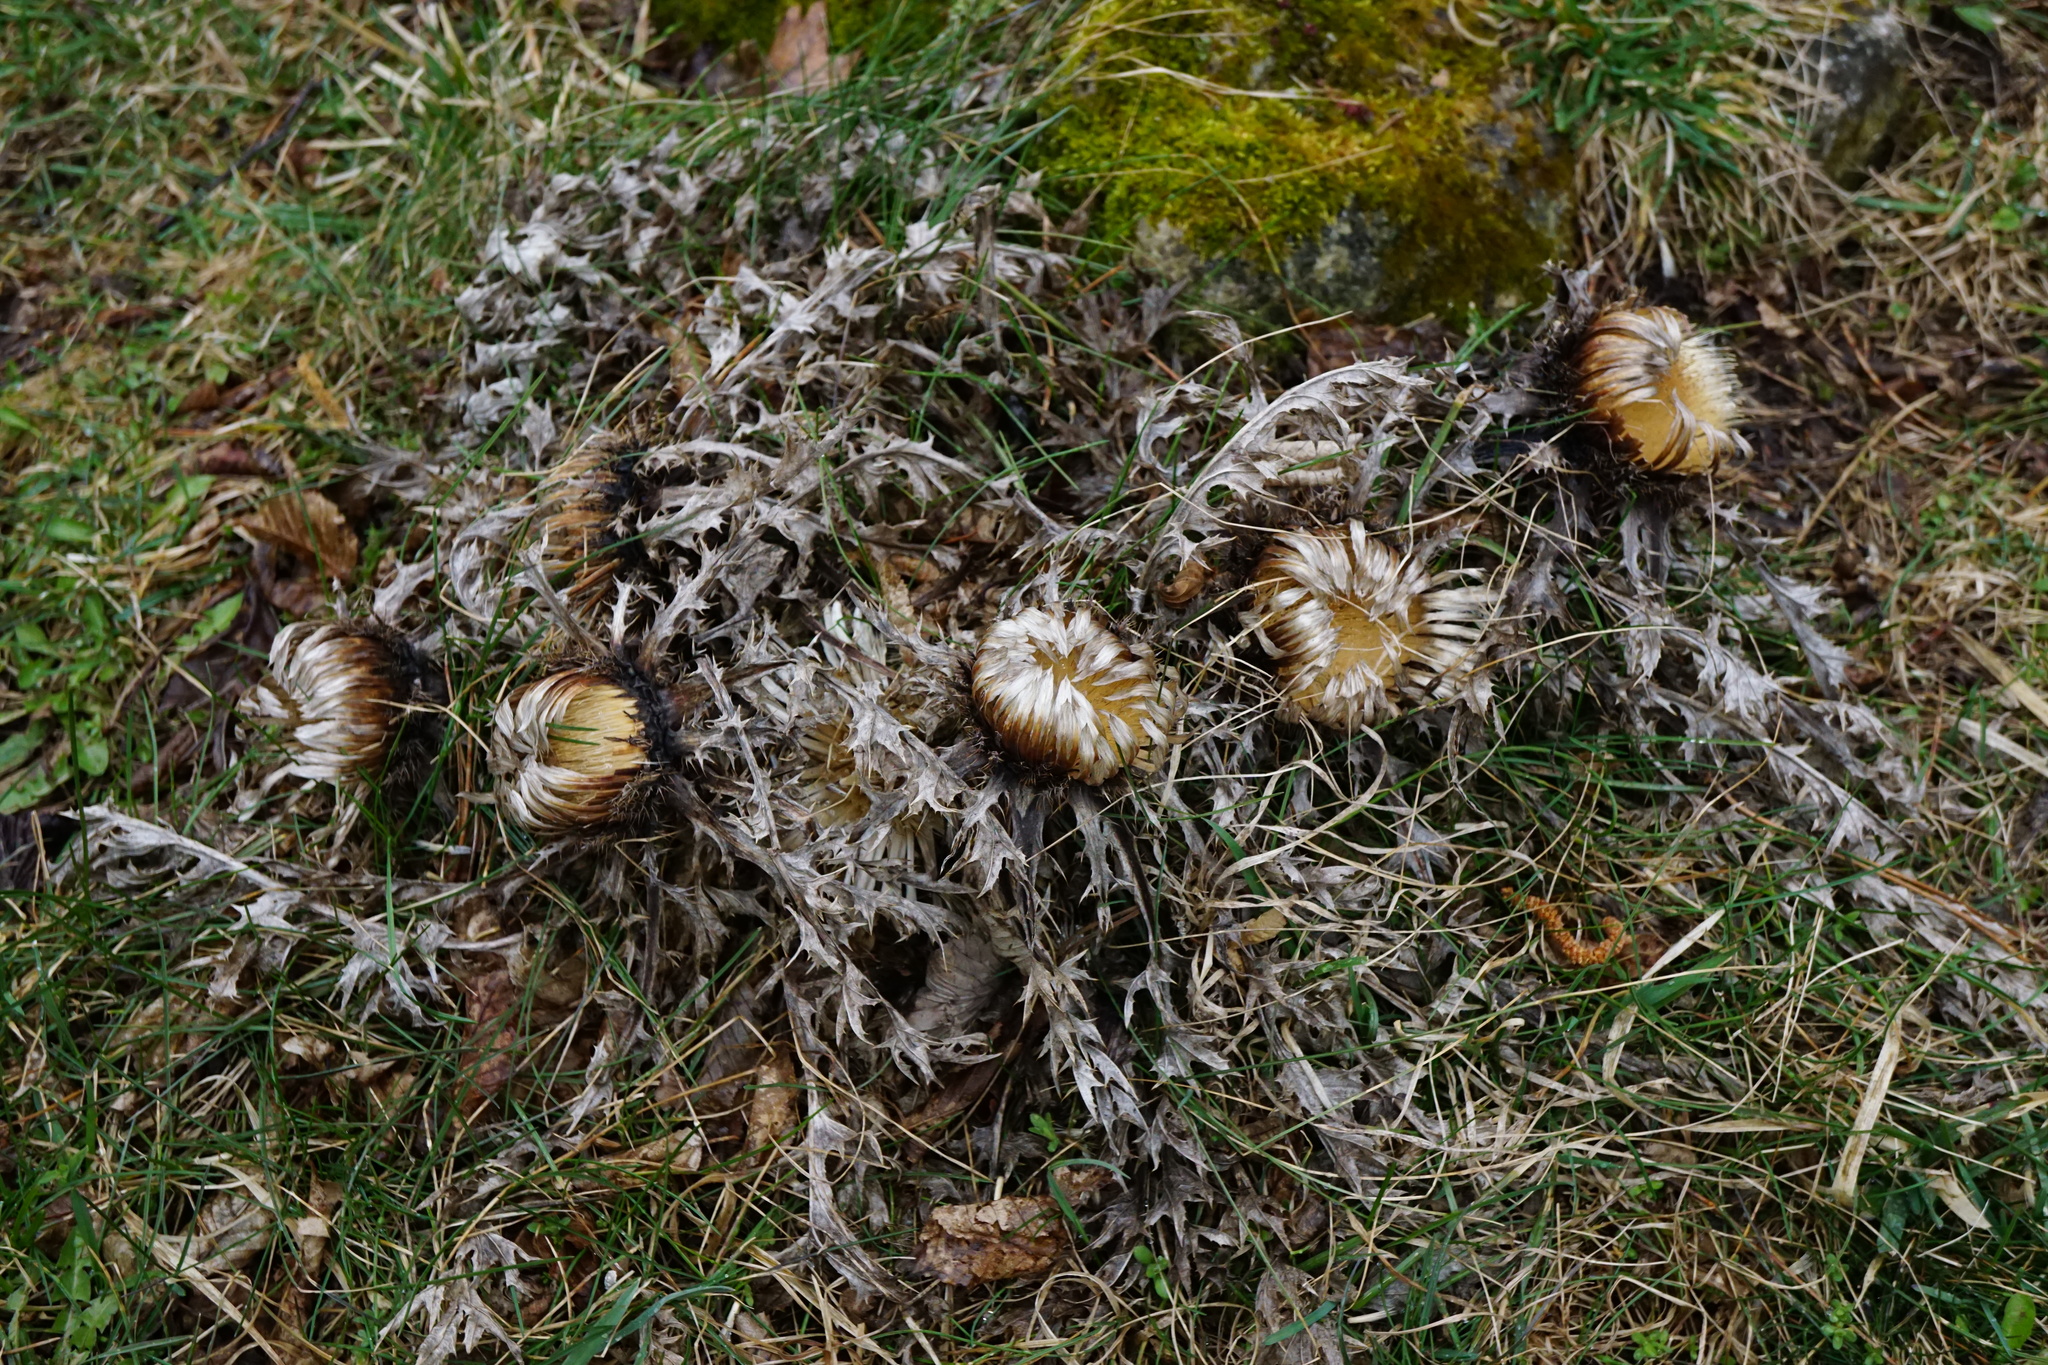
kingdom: Plantae
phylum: Tracheophyta
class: Magnoliopsida
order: Asterales
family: Asteraceae
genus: Carlina
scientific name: Carlina acaulis
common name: Stemless carline thistle
